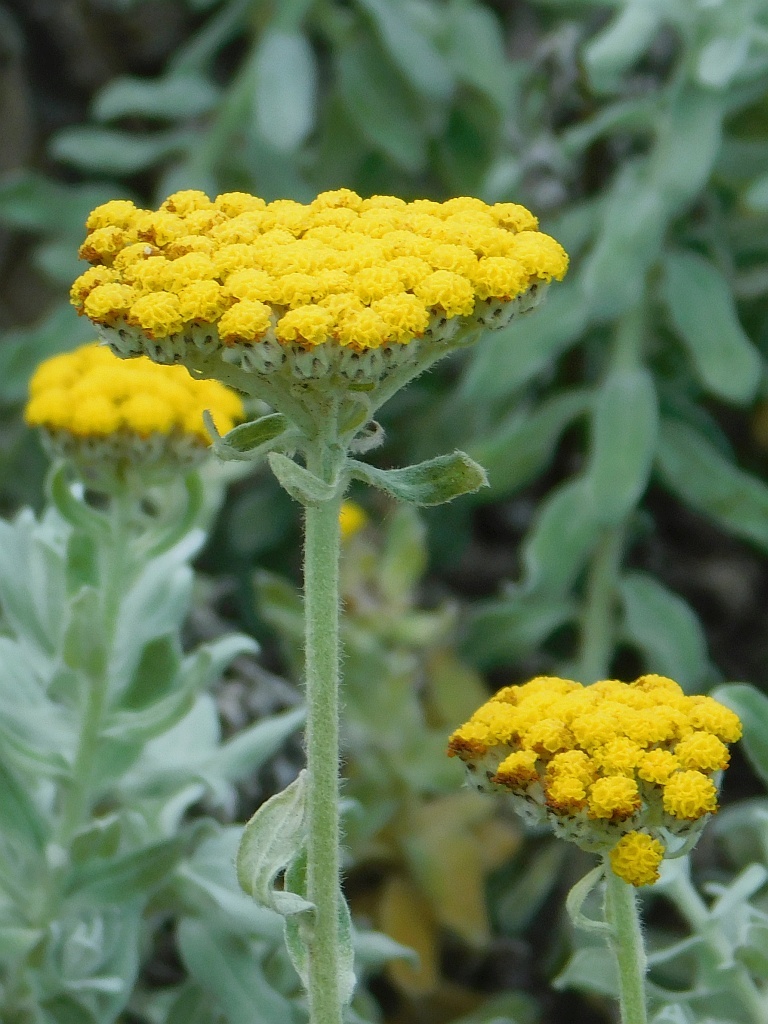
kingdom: Plantae
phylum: Tracheophyta
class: Magnoliopsida
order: Asterales
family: Asteraceae
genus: Helichrysum
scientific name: Helichrysum dasyanthum
